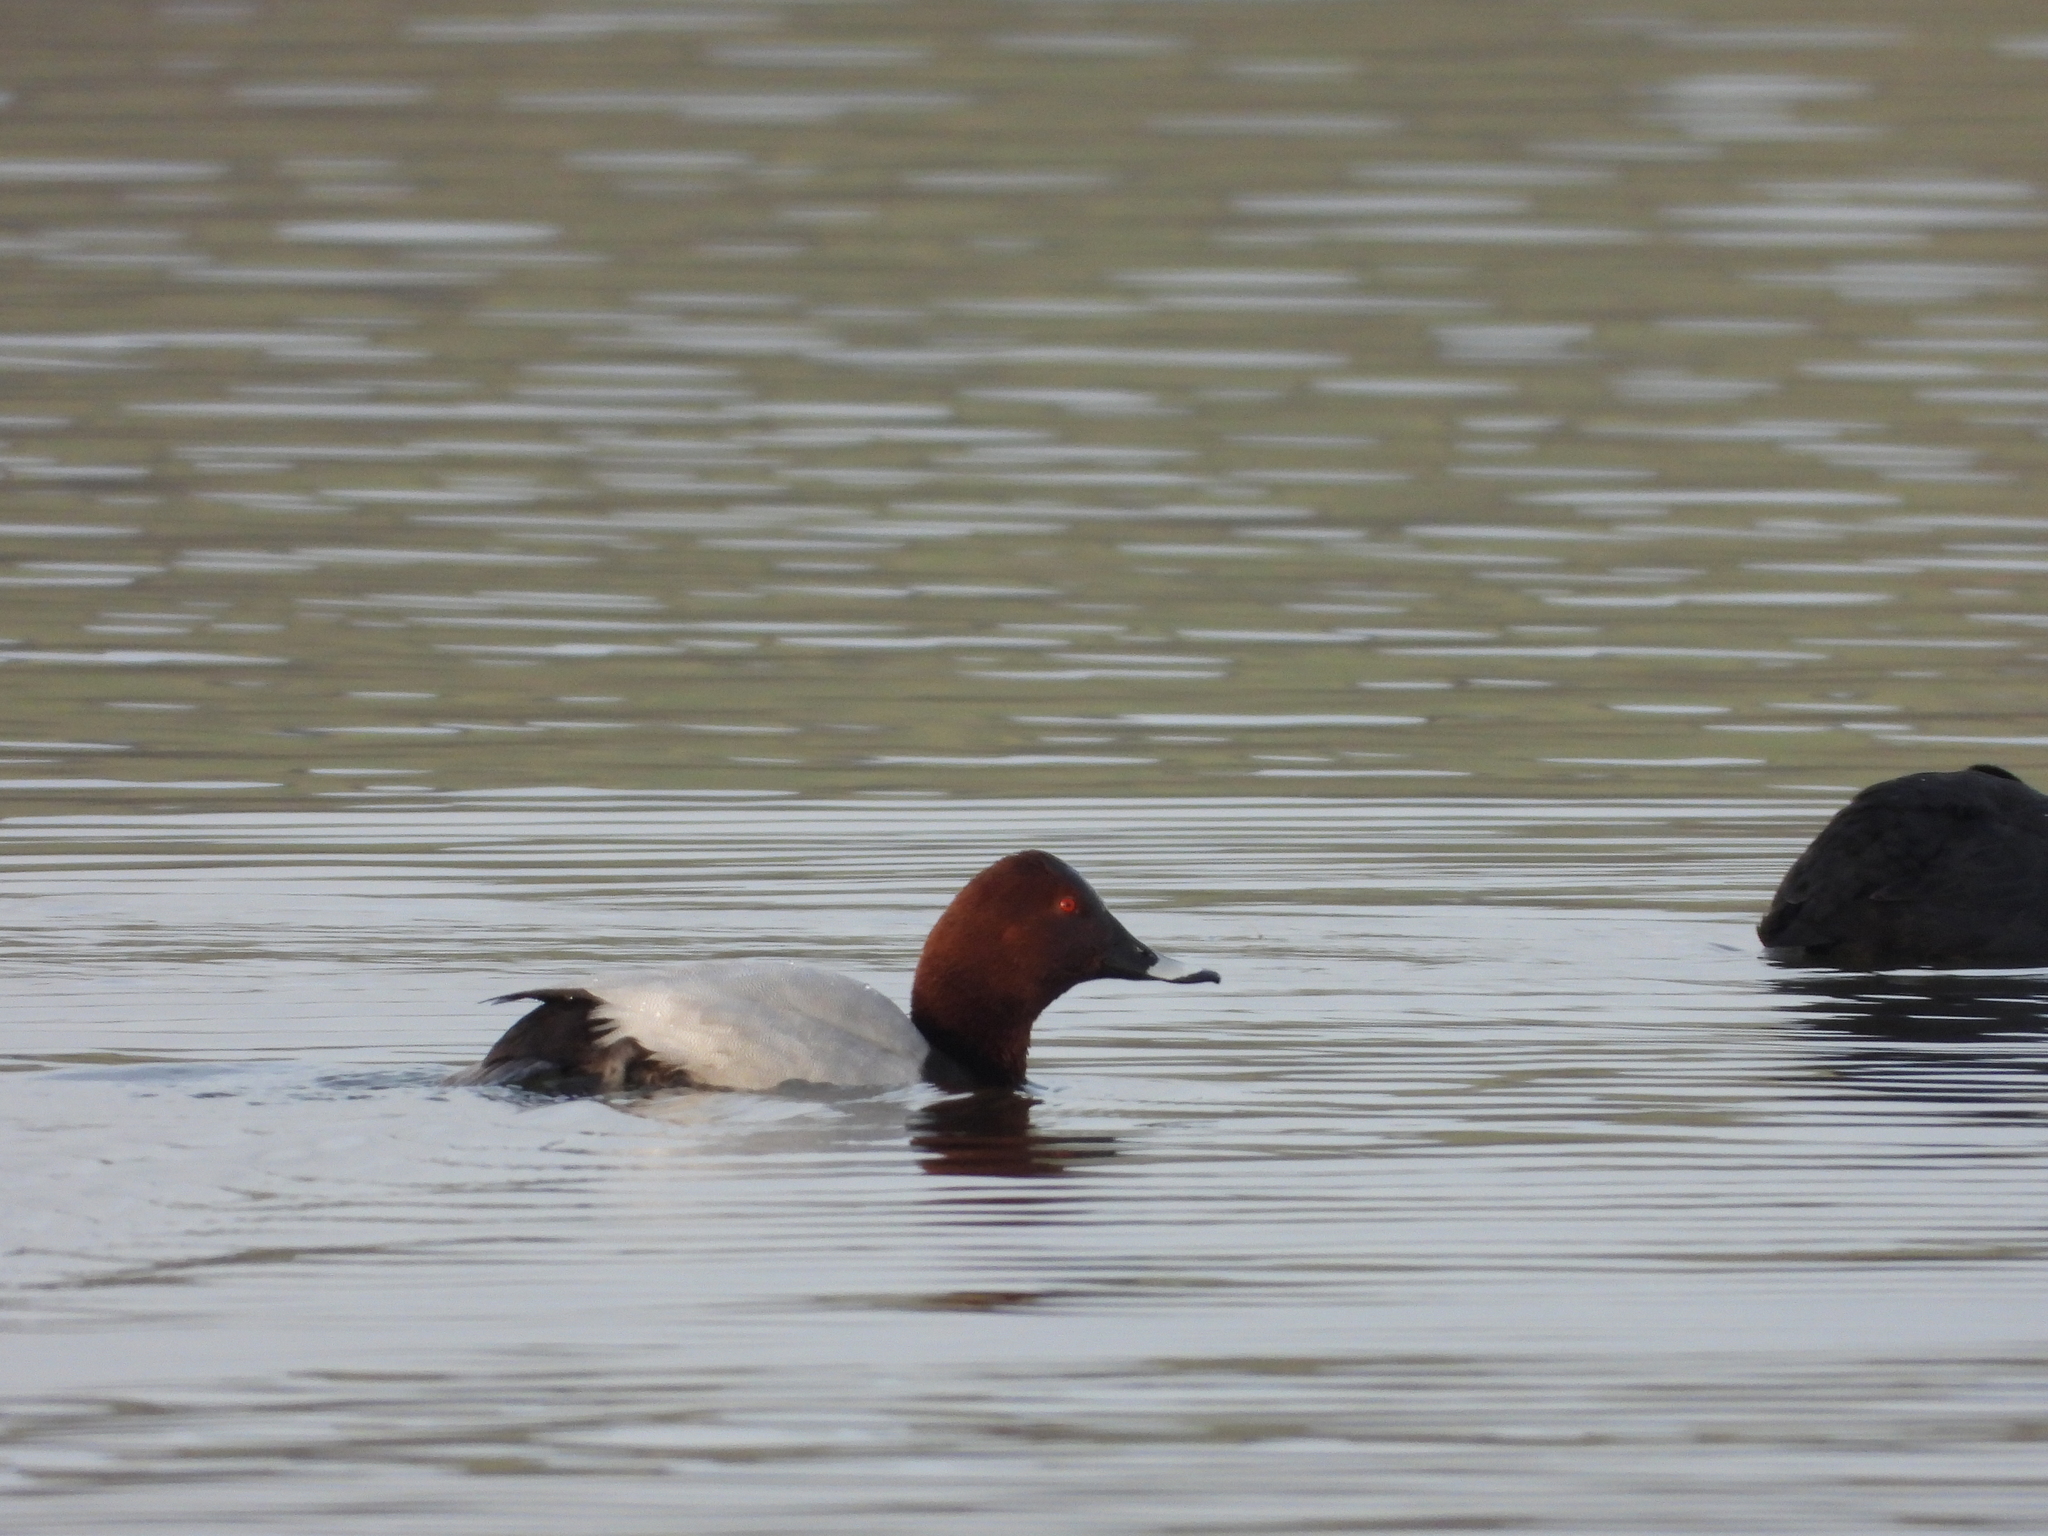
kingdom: Animalia
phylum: Chordata
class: Aves
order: Anseriformes
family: Anatidae
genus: Aythya
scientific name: Aythya ferina
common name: Common pochard
